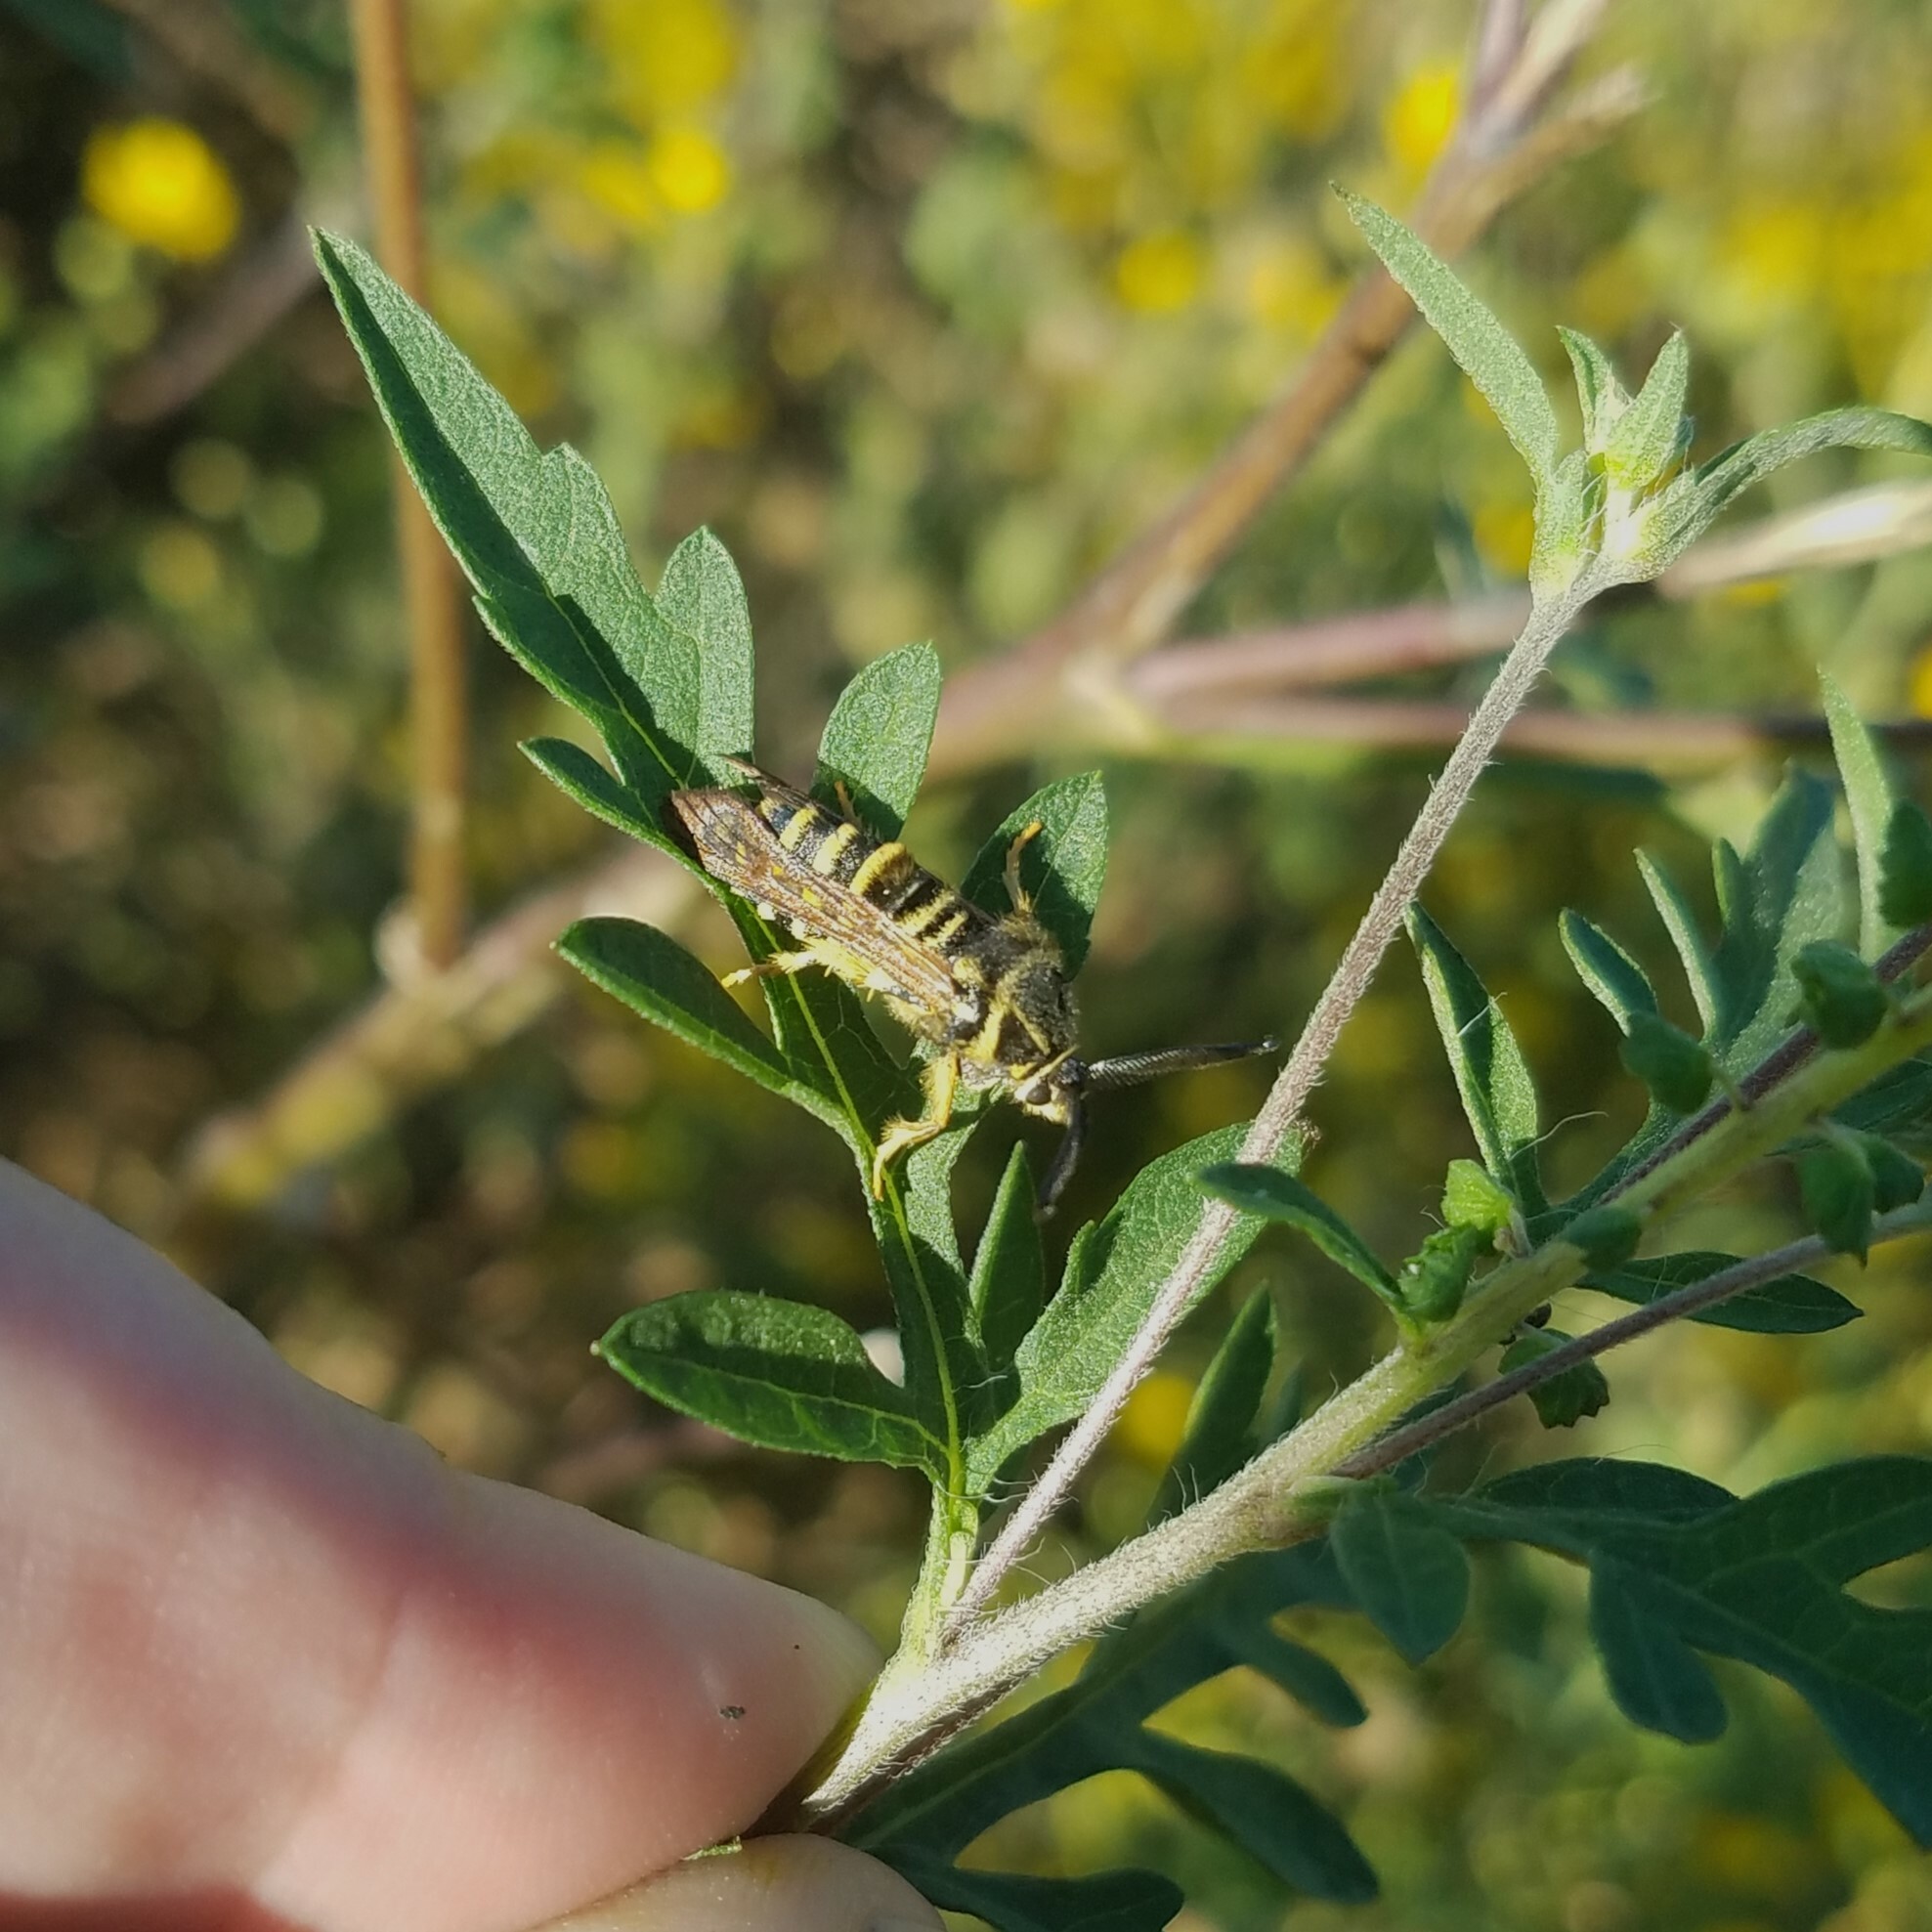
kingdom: Animalia
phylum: Arthropoda
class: Insecta
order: Lepidoptera
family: Sesiidae
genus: Pennisetia
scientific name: Pennisetia marginatum
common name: Raspberry crown borer
